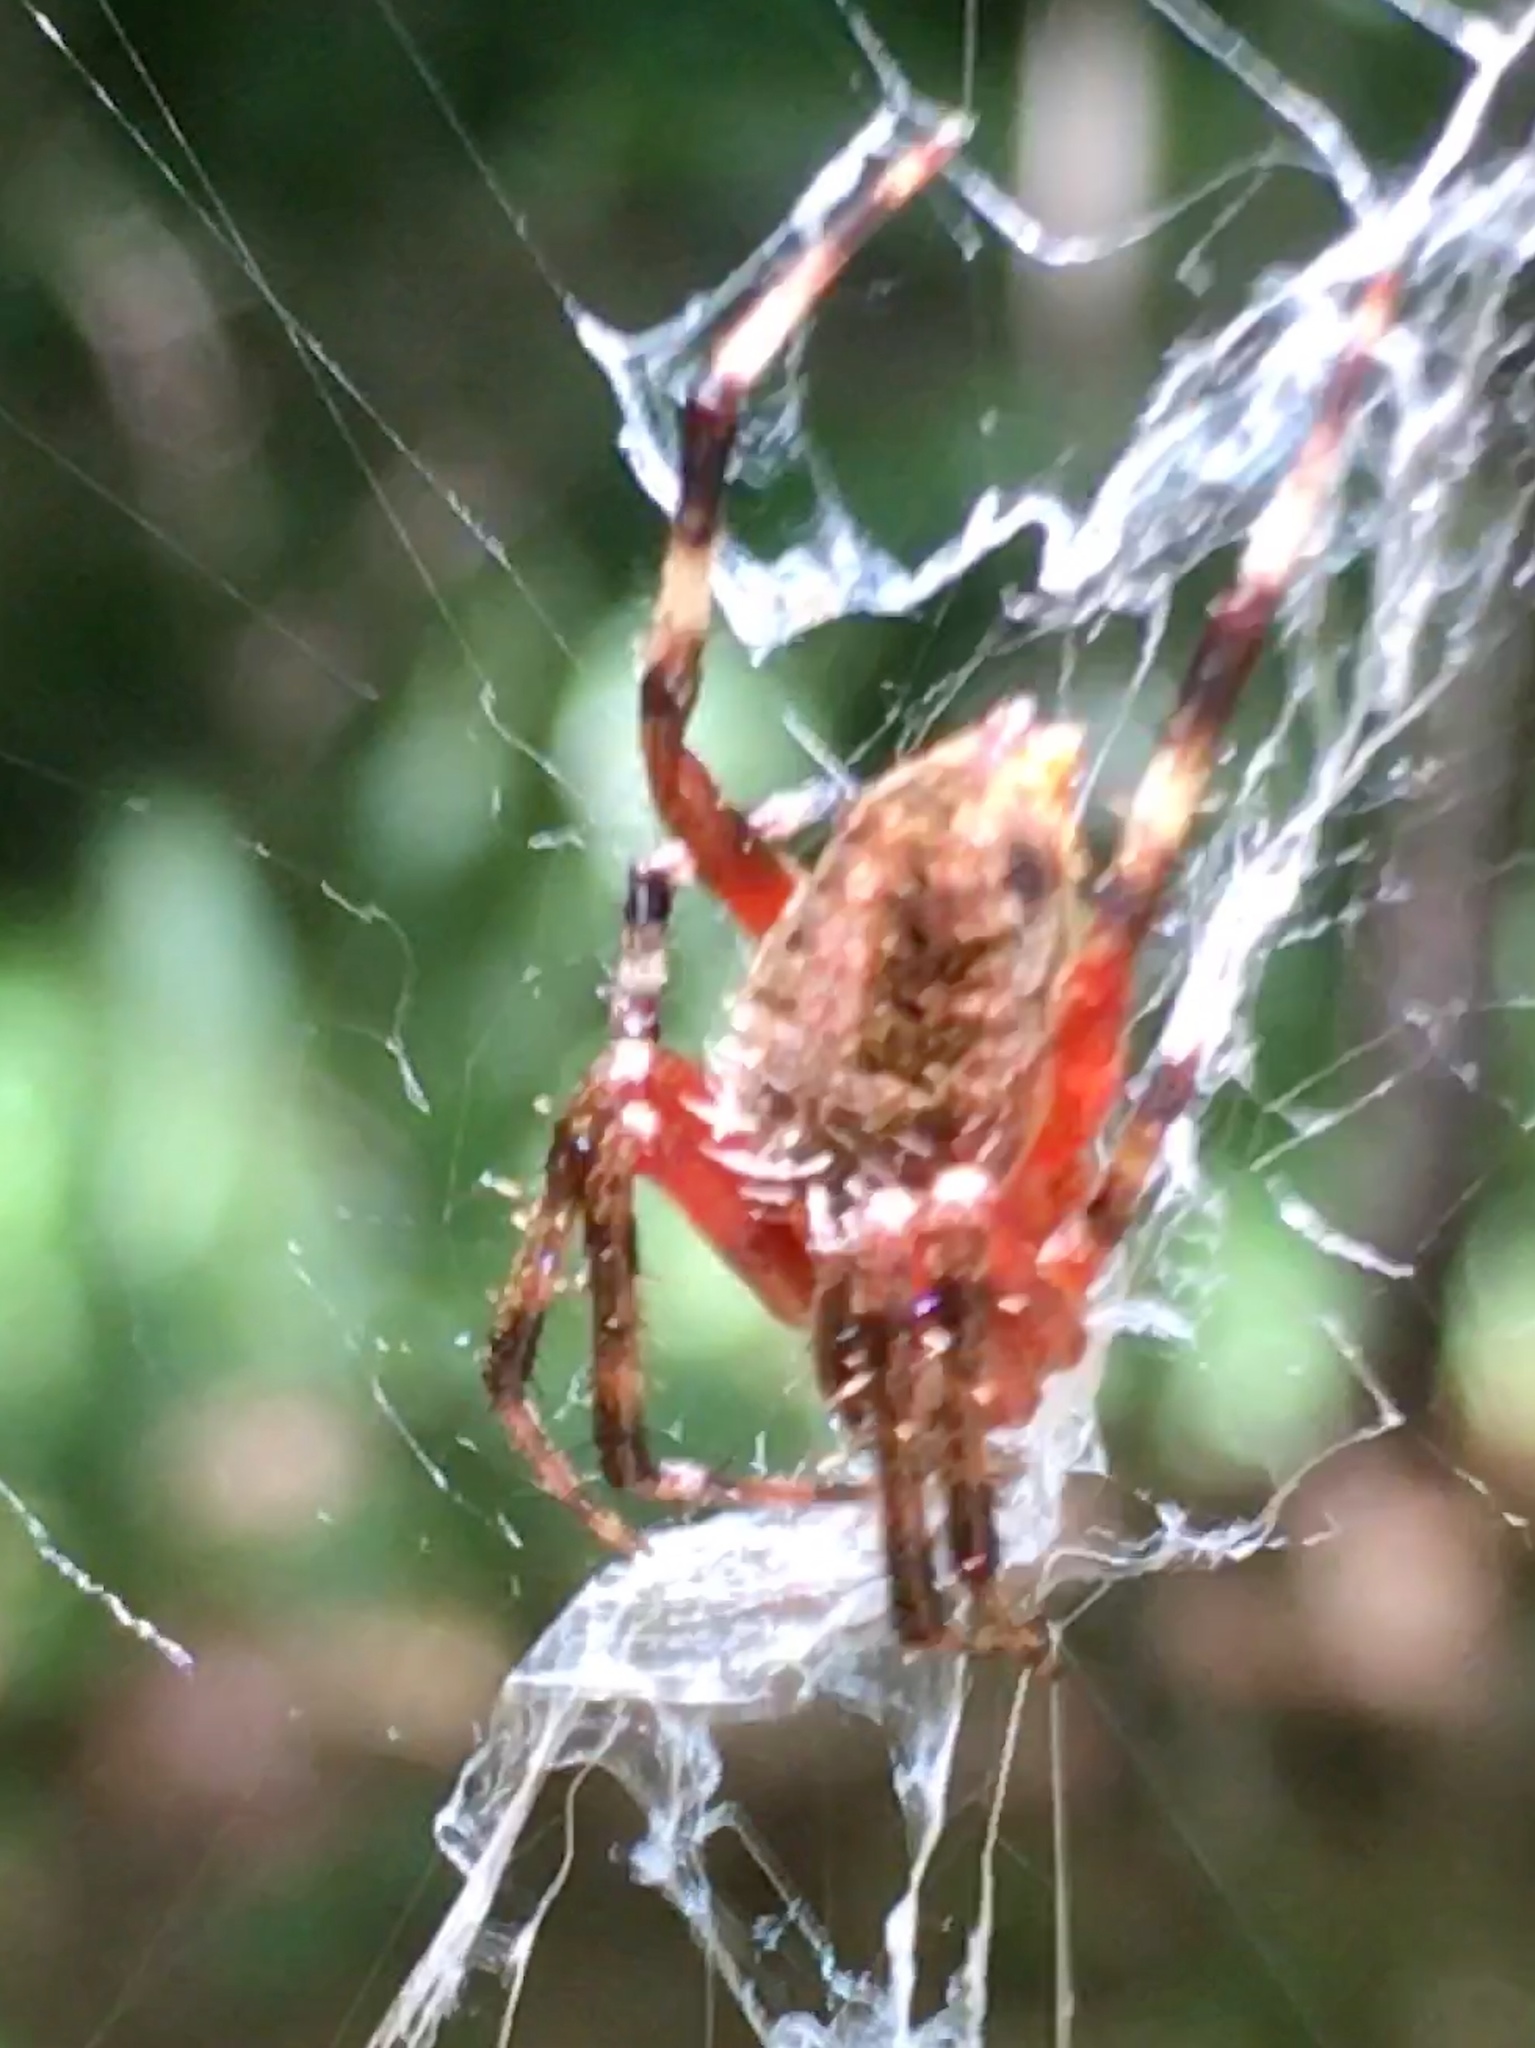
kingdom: Animalia
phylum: Arthropoda
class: Arachnida
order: Araneae
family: Araneidae
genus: Neoscona
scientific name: Neoscona domiciliorum
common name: Red-femured spotted orbweaver
